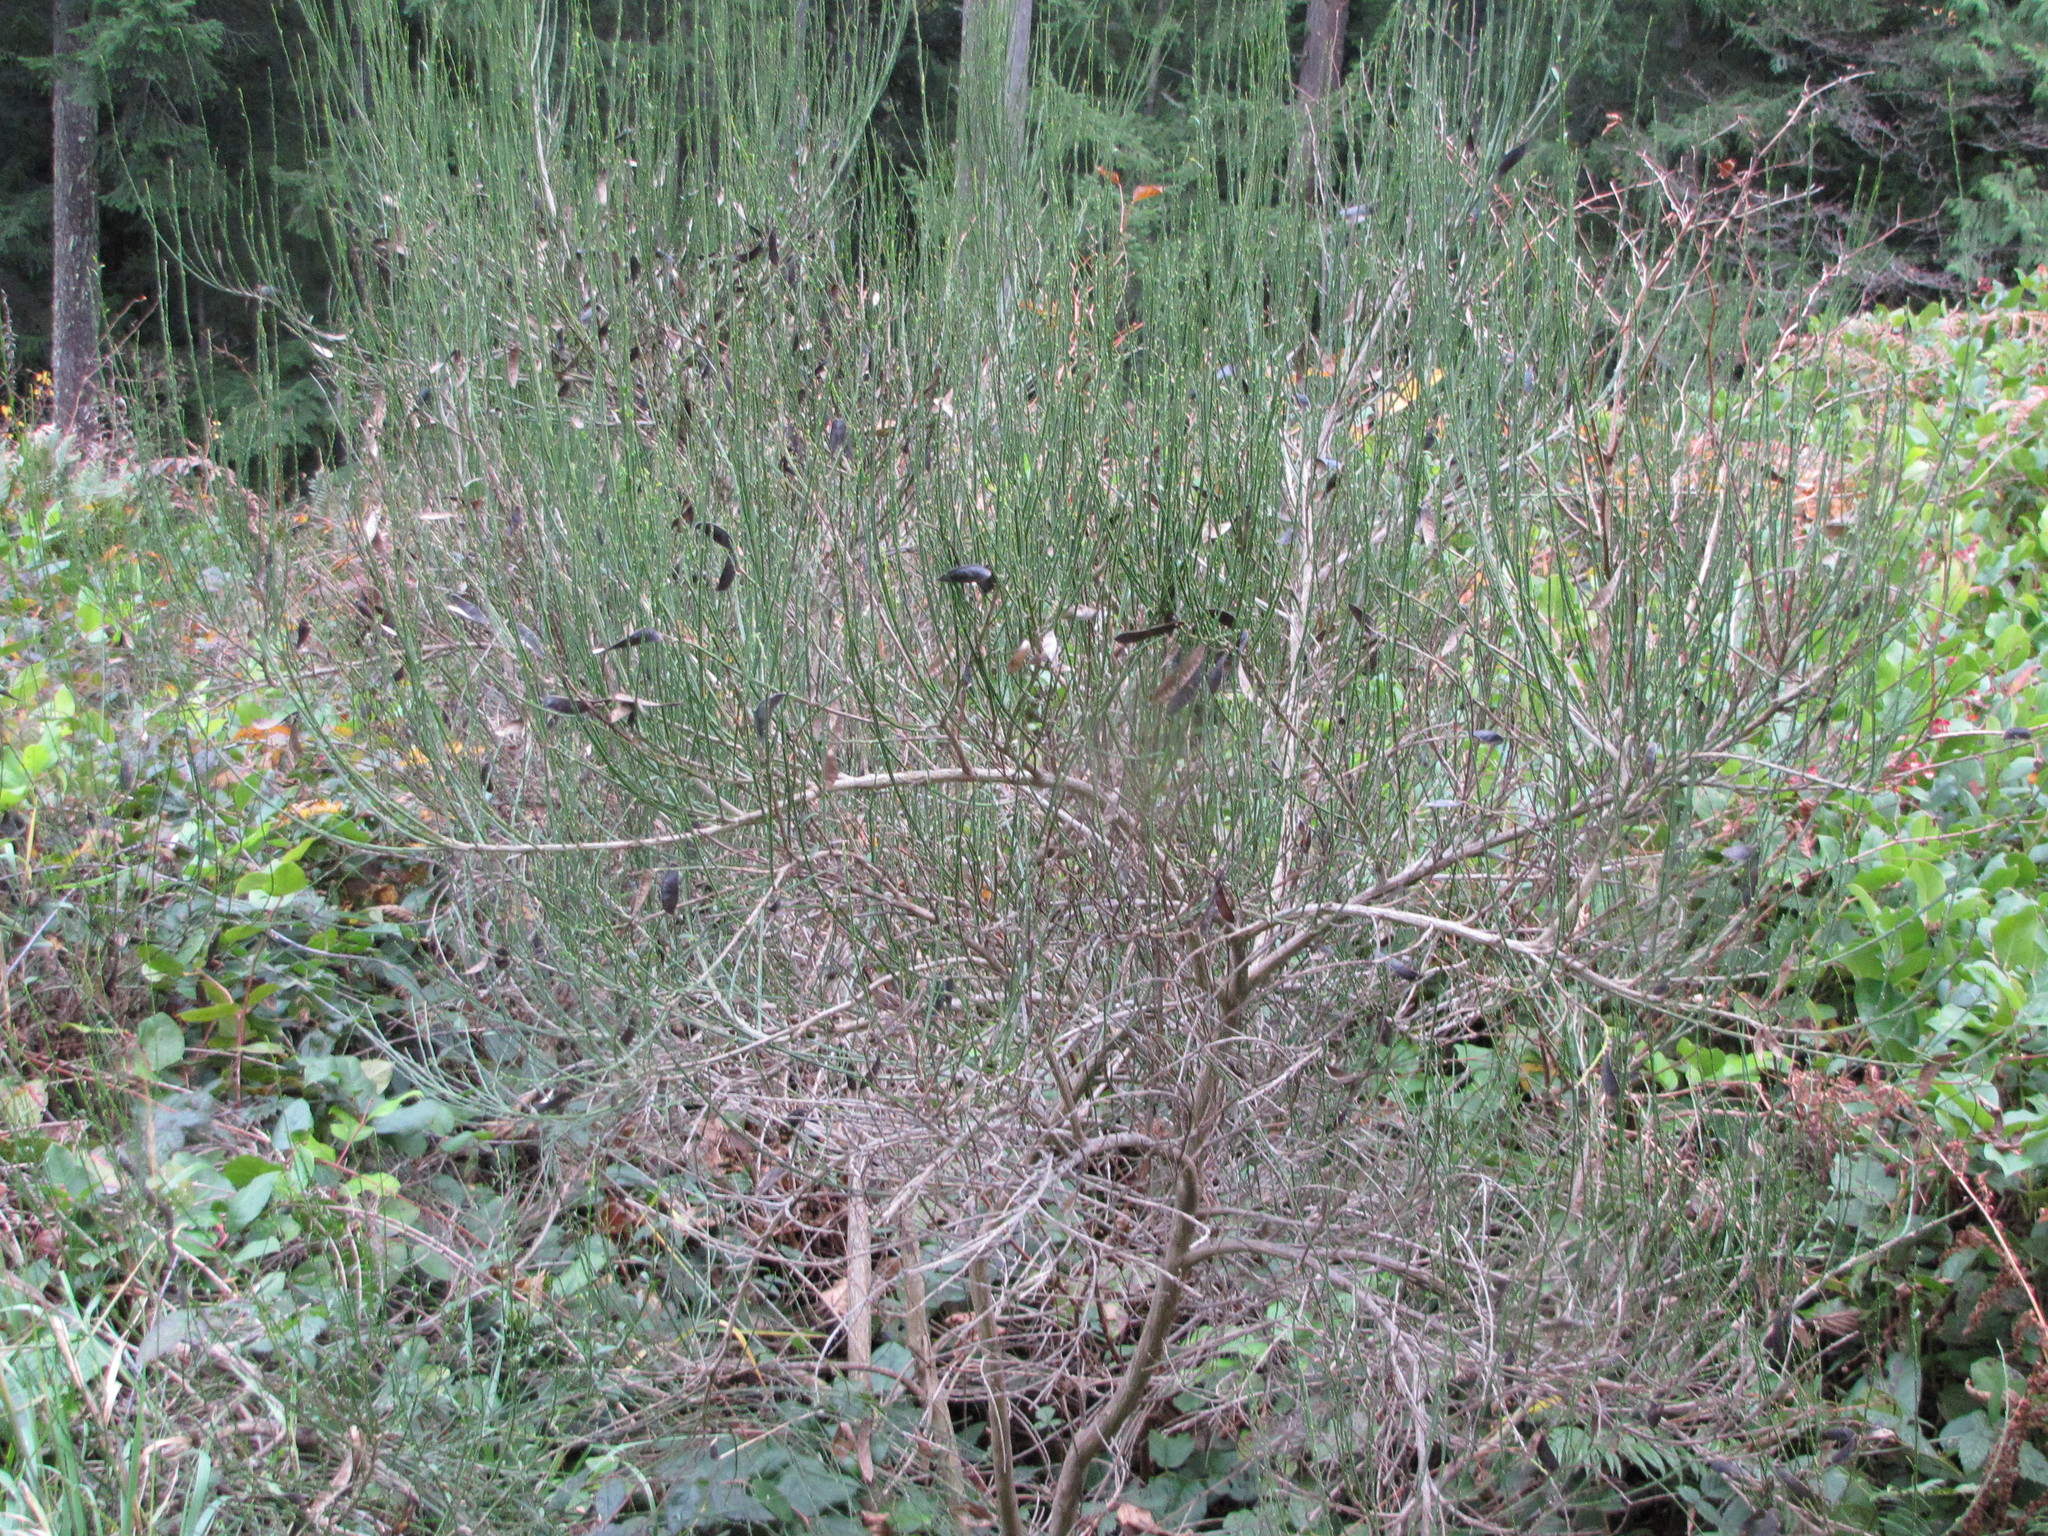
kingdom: Plantae
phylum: Tracheophyta
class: Magnoliopsida
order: Fabales
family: Fabaceae
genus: Cytisus
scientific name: Cytisus scoparius
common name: Scotch broom
